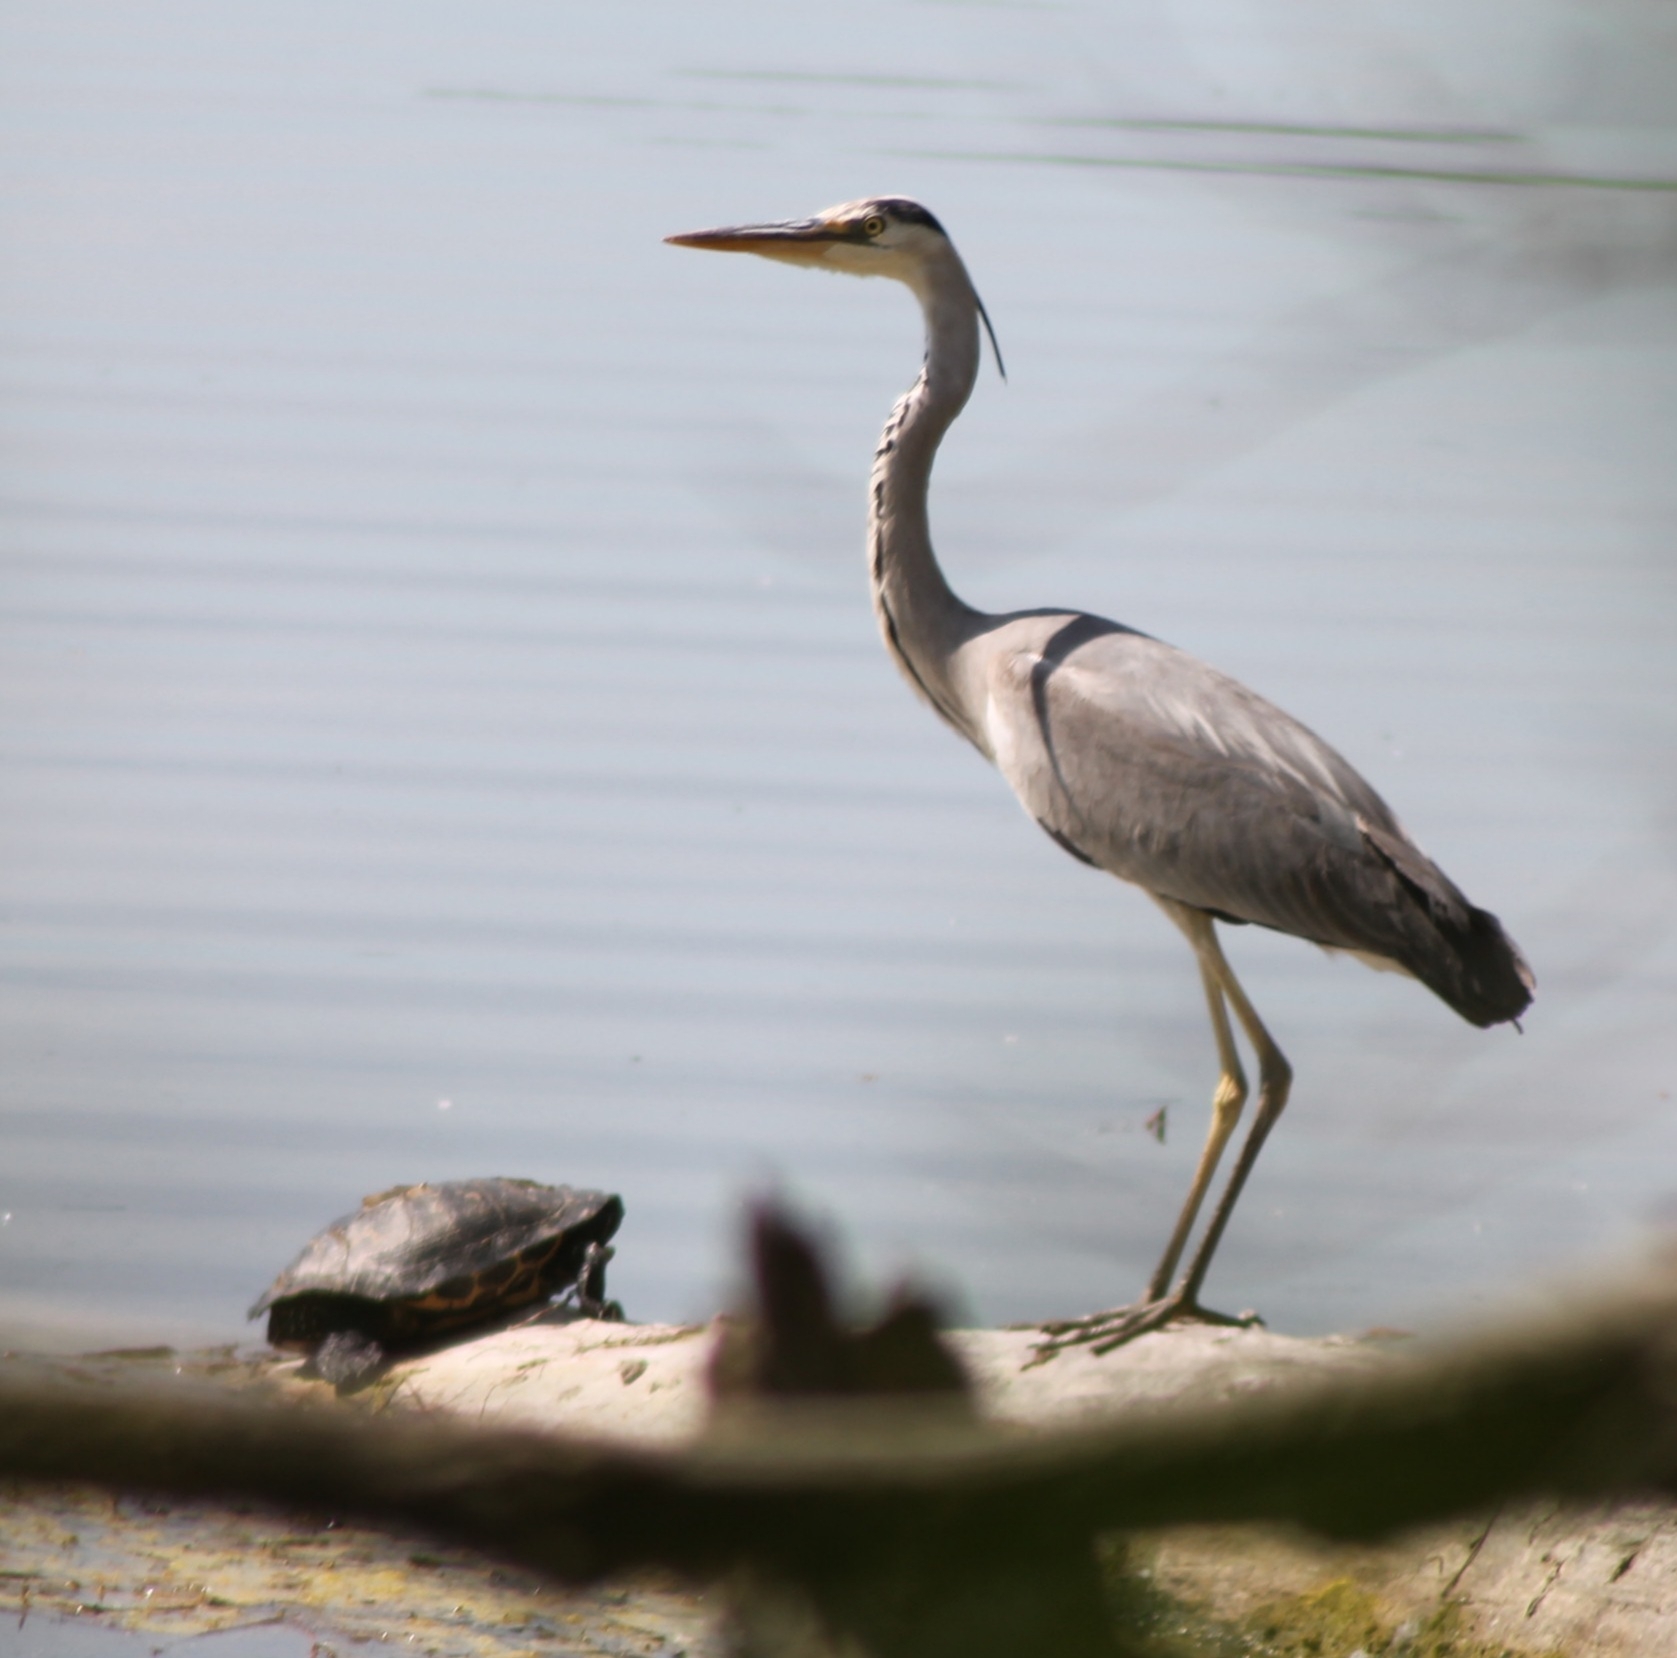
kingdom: Animalia
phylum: Chordata
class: Aves
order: Pelecaniformes
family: Ardeidae
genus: Ardea
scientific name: Ardea cinerea
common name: Grey heron
